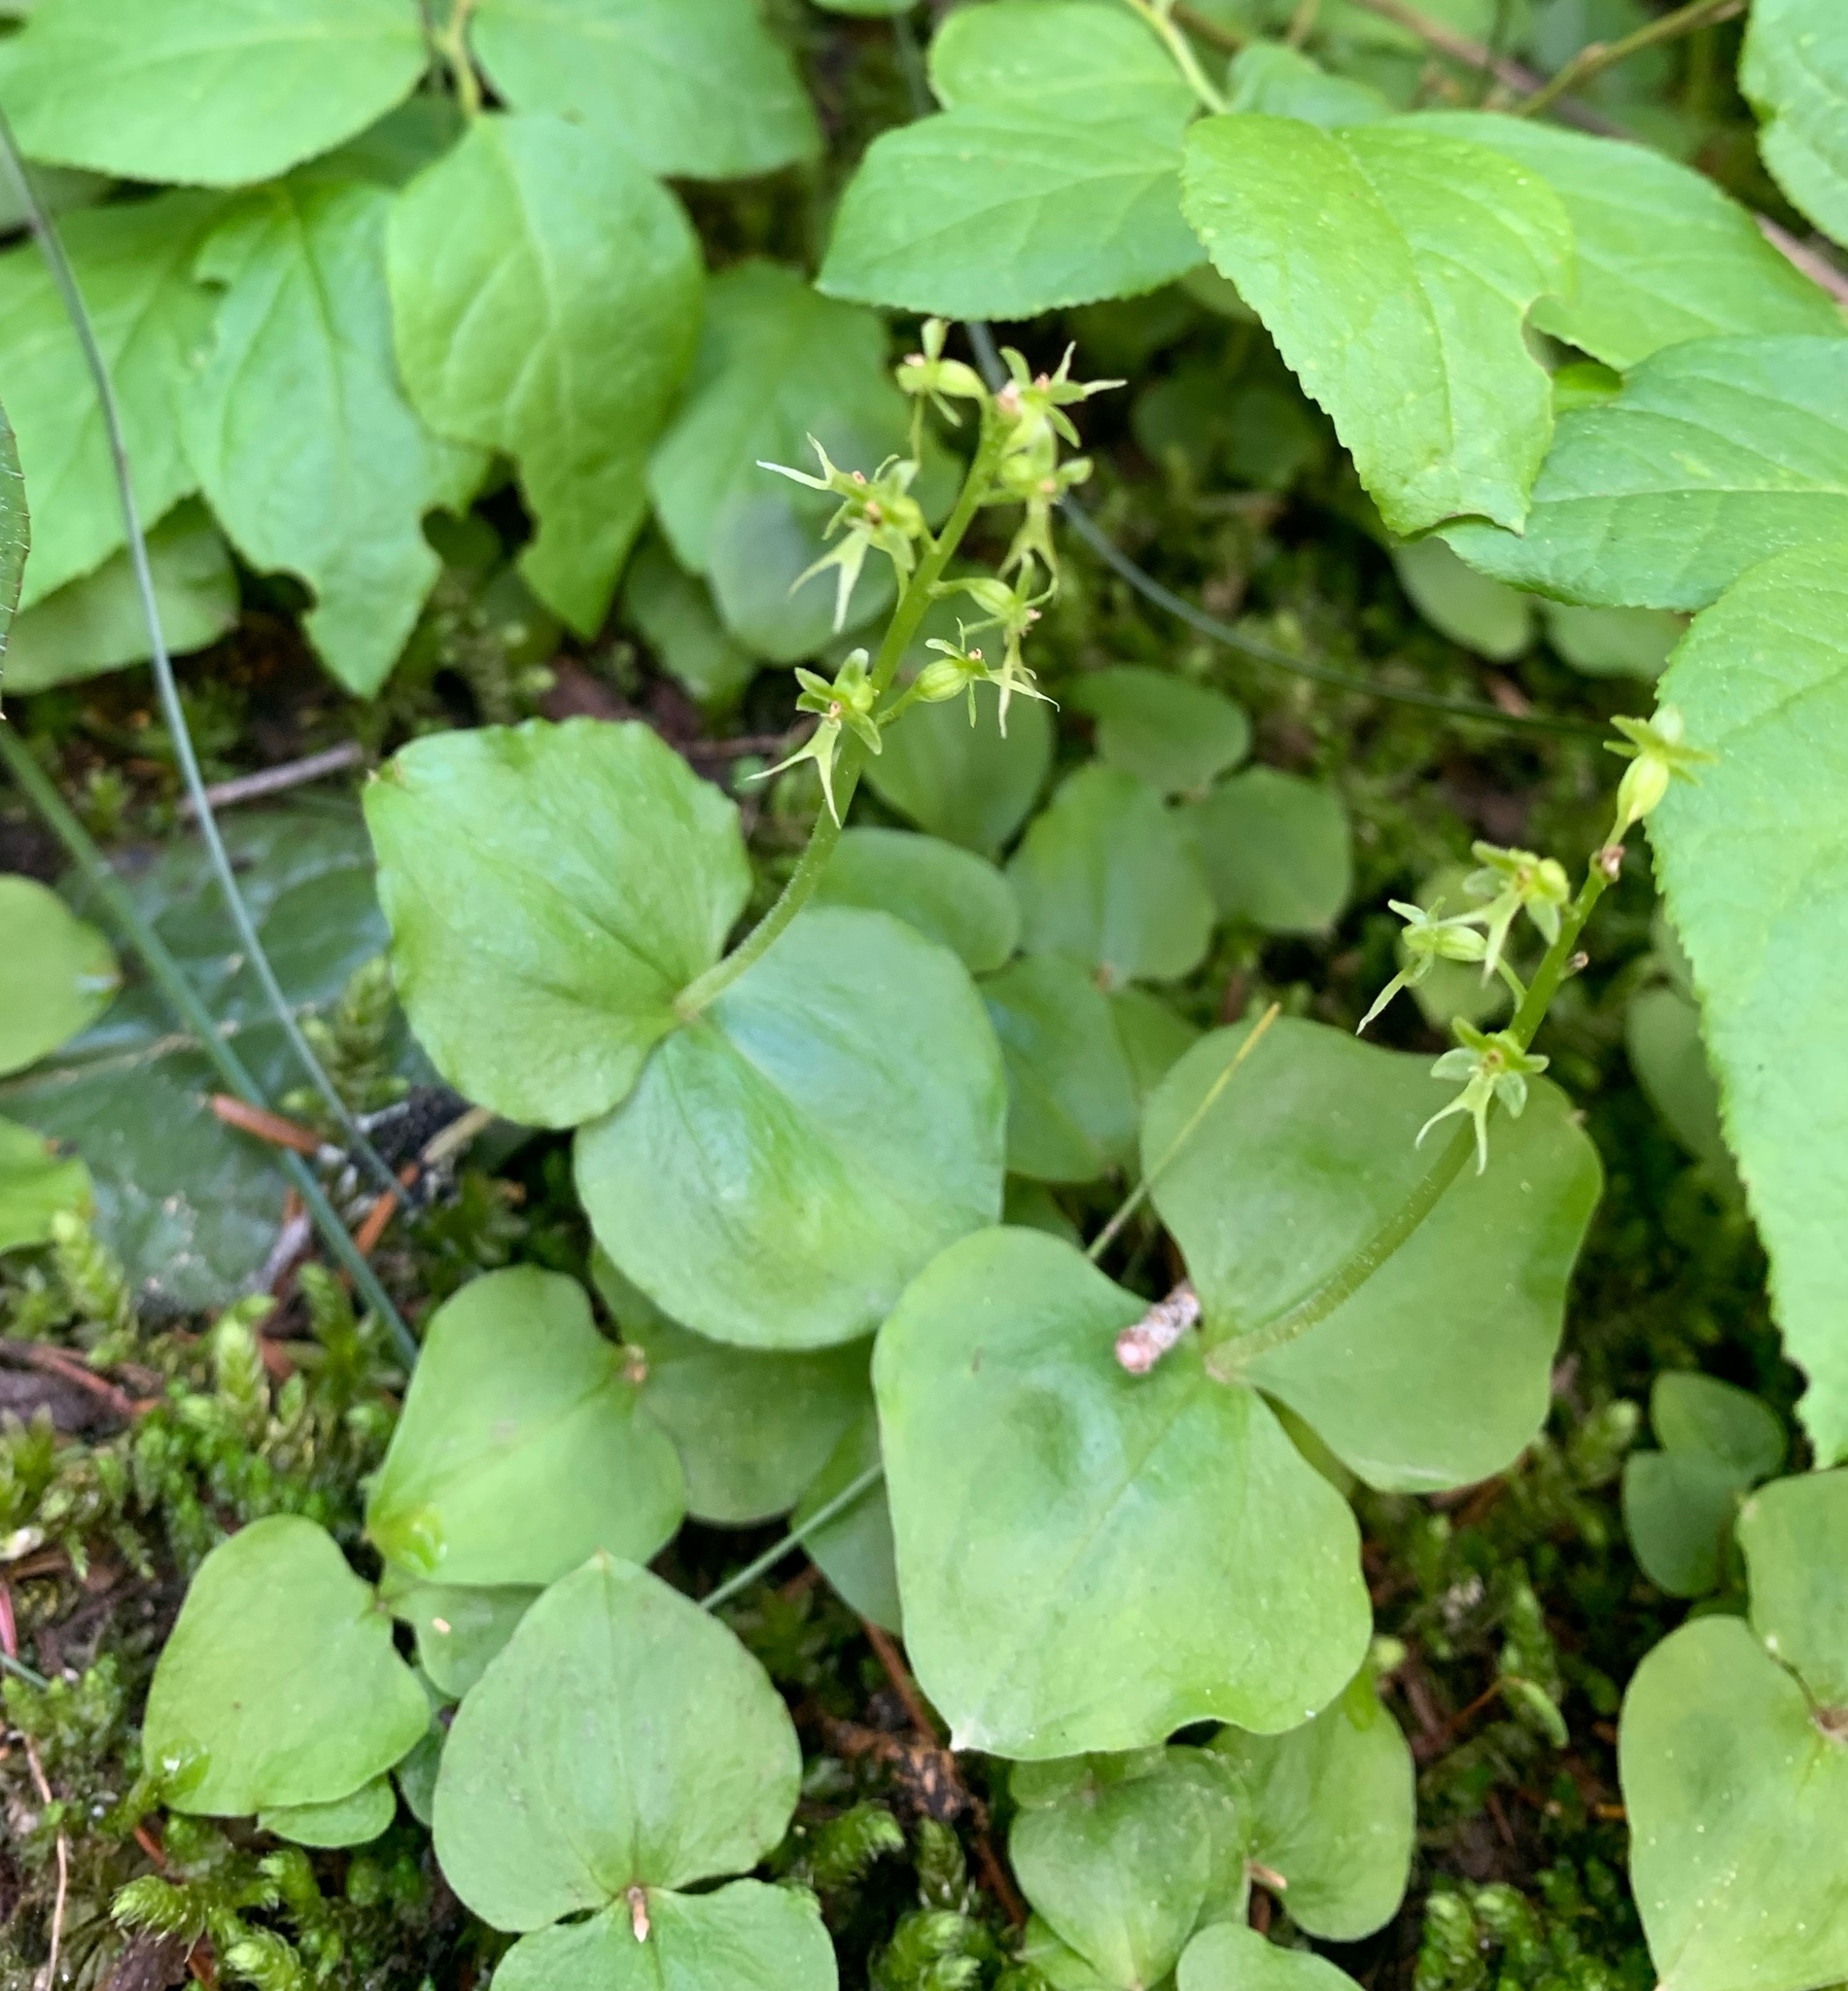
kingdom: Plantae
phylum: Tracheophyta
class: Liliopsida
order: Asparagales
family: Orchidaceae
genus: Neottia
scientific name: Neottia cordata
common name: Lesser twayblade
